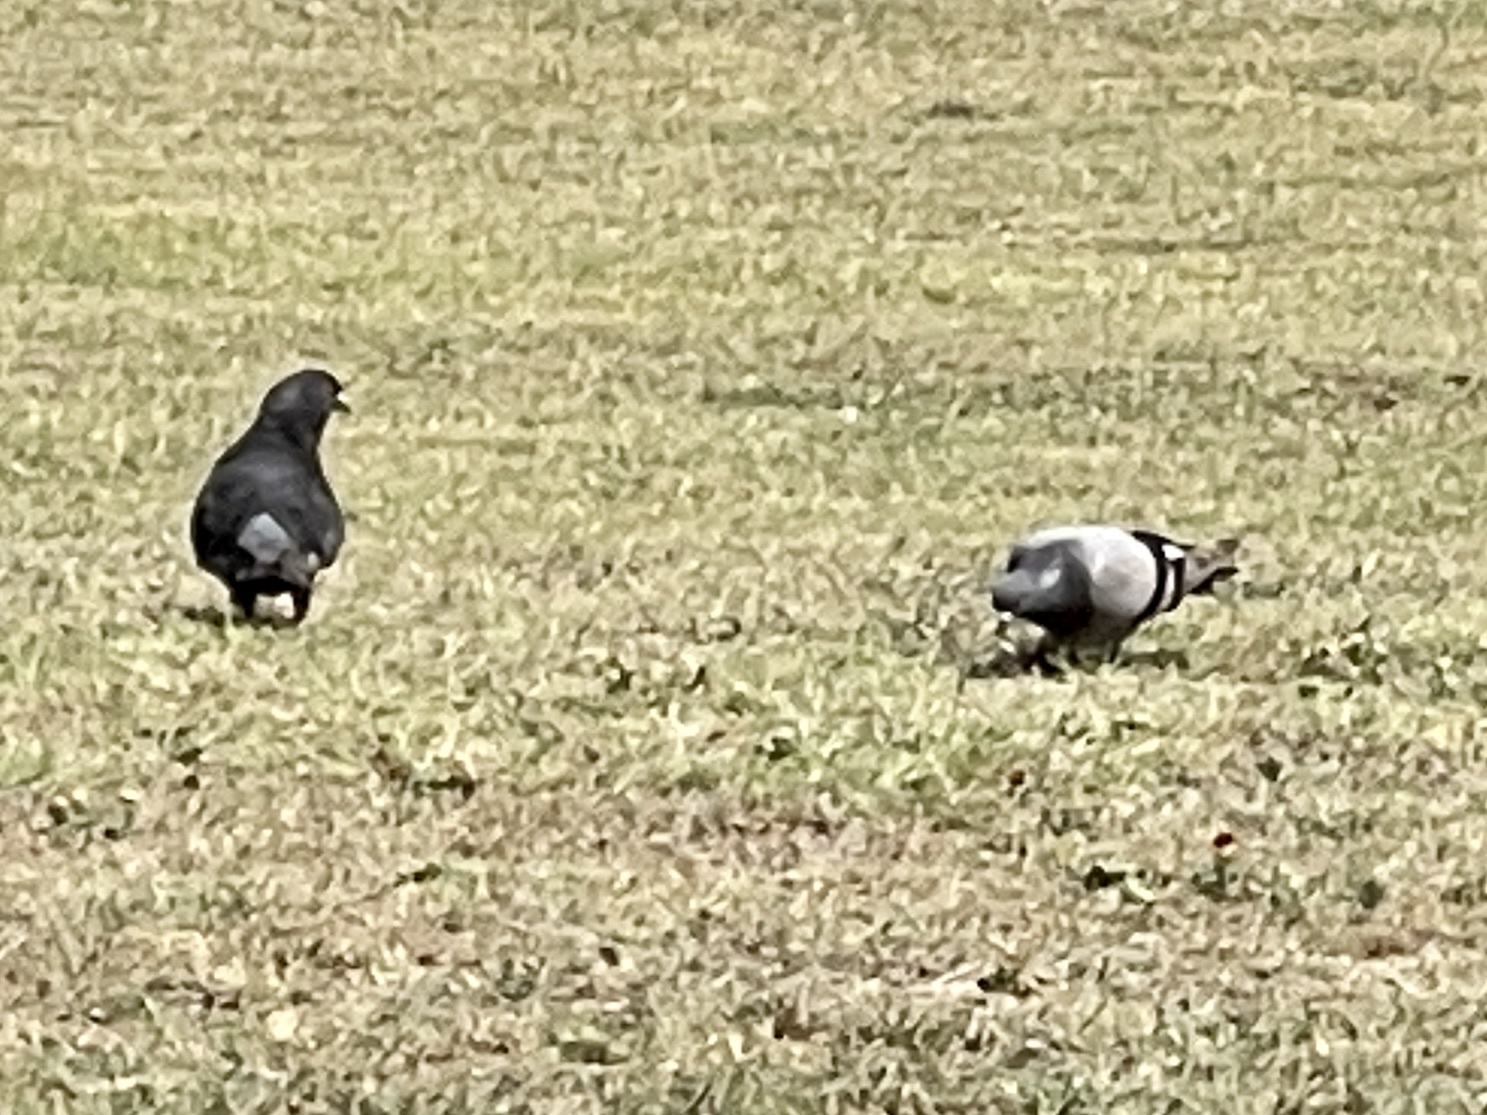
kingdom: Animalia
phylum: Chordata
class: Aves
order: Columbiformes
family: Columbidae
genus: Columba
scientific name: Columba livia
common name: Rock pigeon
